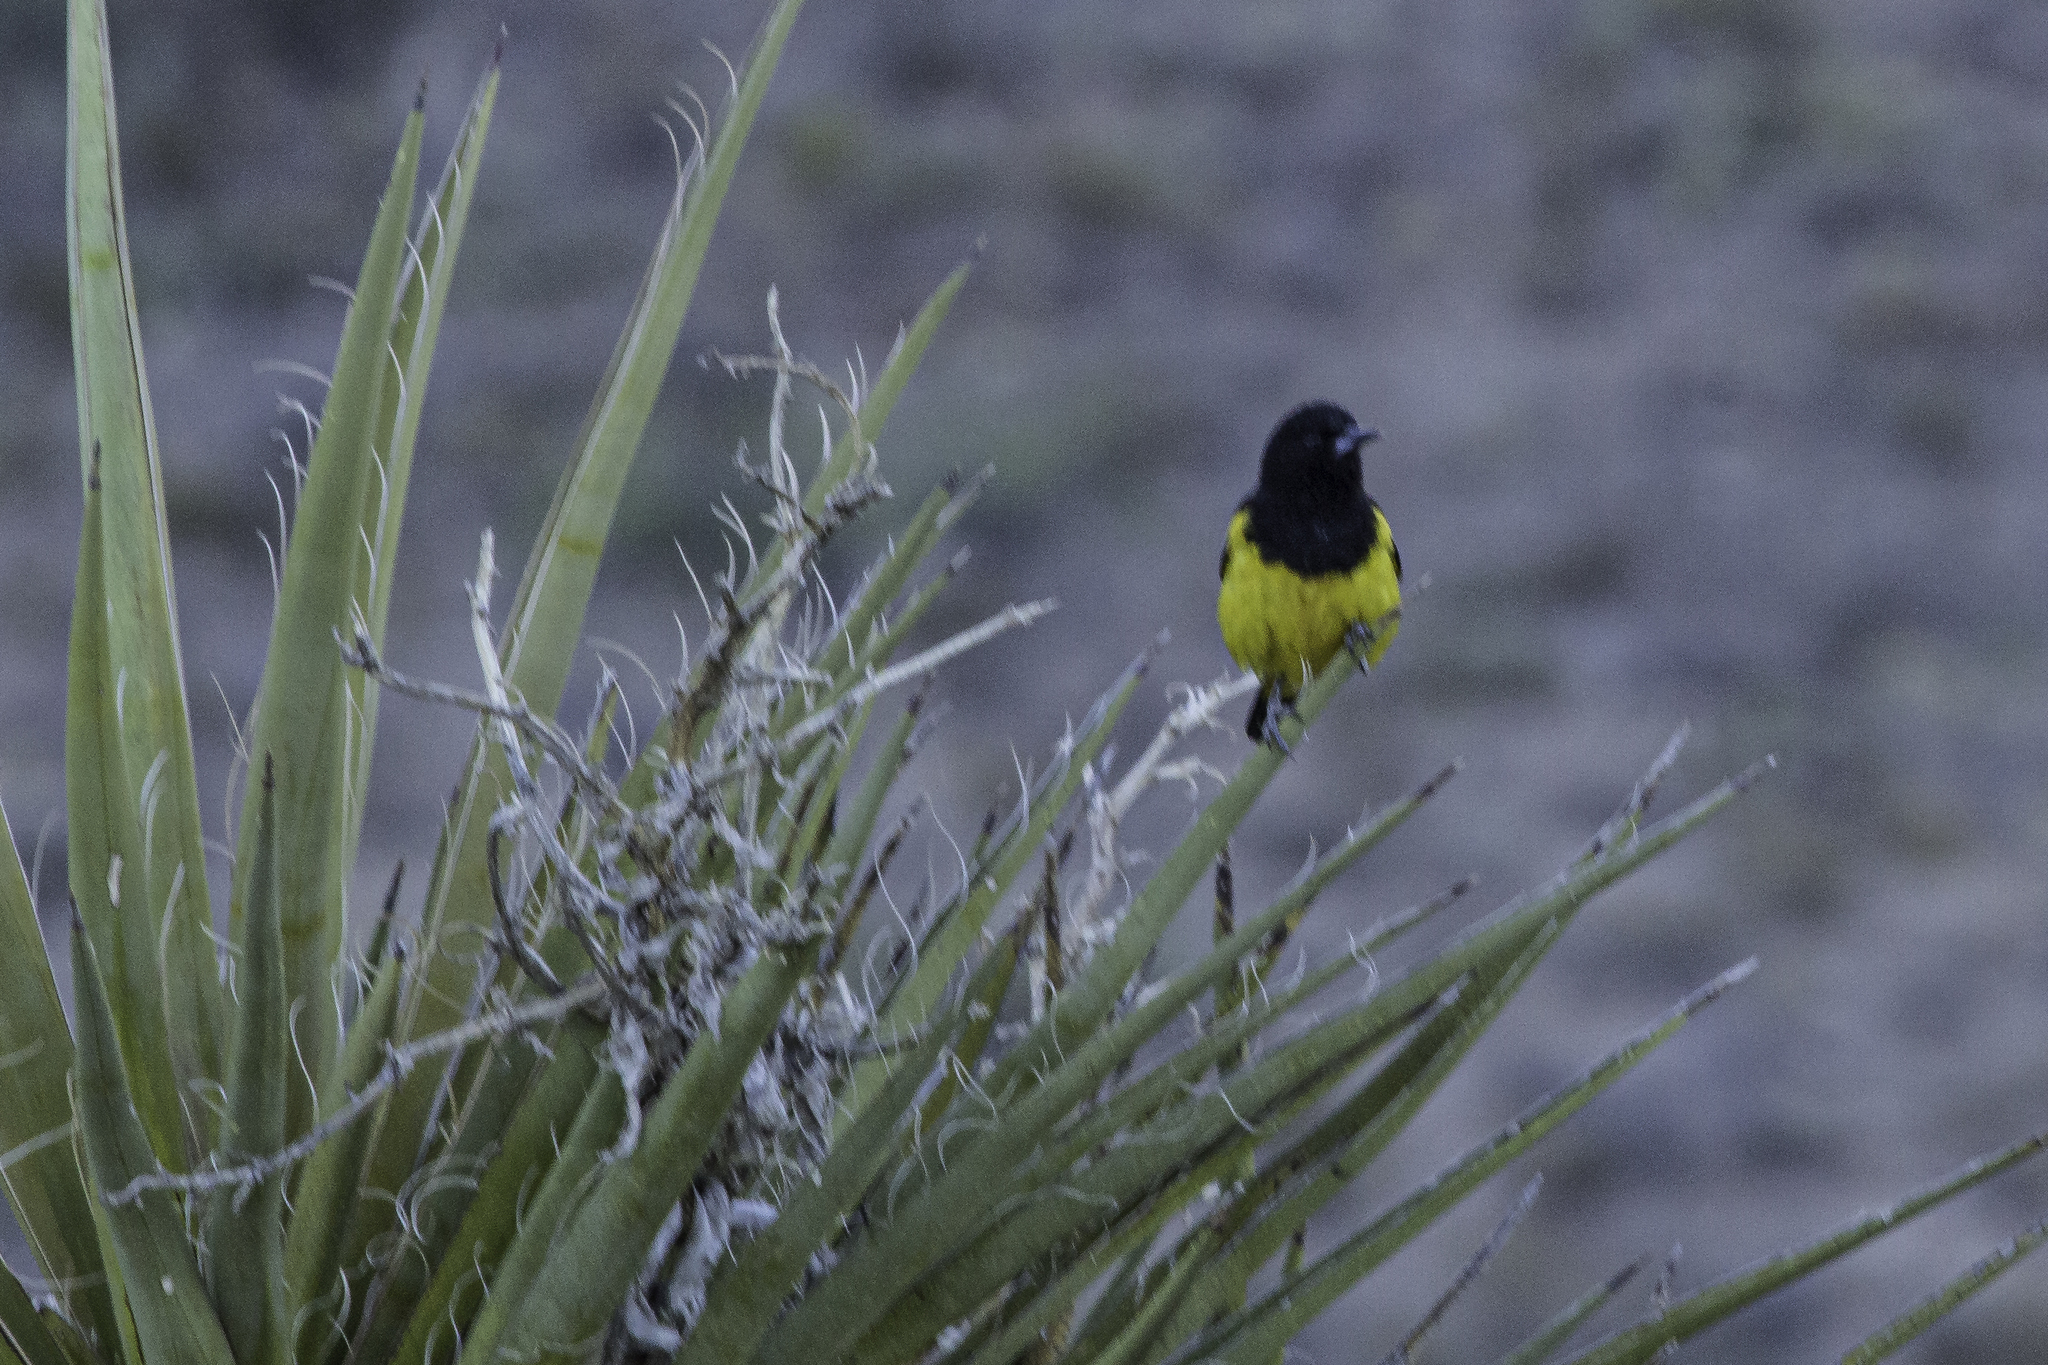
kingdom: Animalia
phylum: Chordata
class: Aves
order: Passeriformes
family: Icteridae
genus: Icterus
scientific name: Icterus parisorum
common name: Scott's oriole
